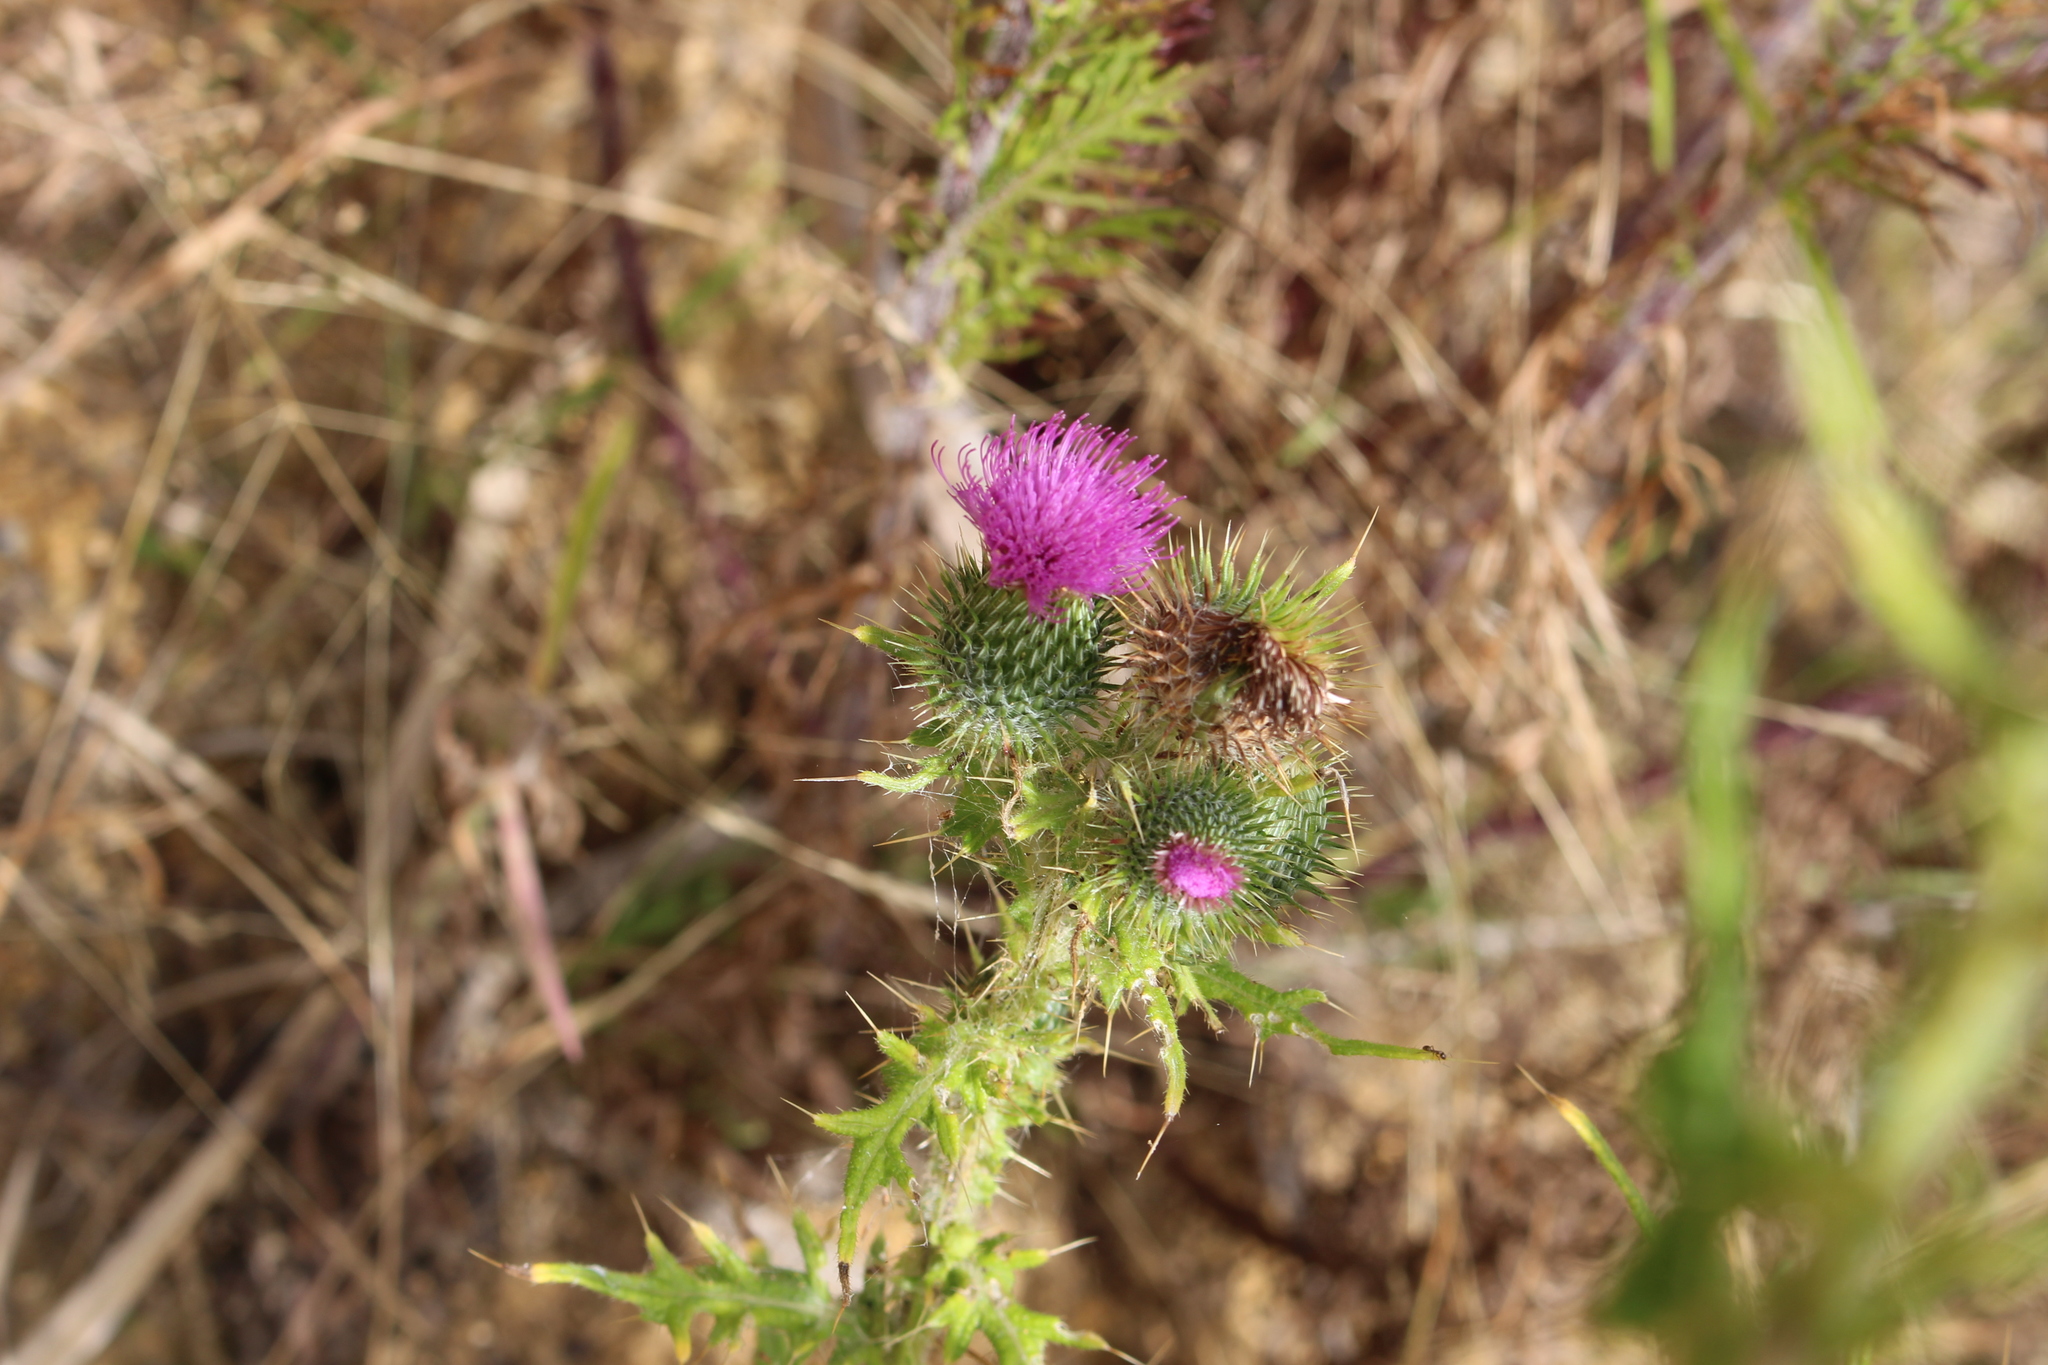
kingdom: Plantae
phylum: Tracheophyta
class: Magnoliopsida
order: Asterales
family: Asteraceae
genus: Cirsium
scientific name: Cirsium vulgare
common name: Bull thistle
